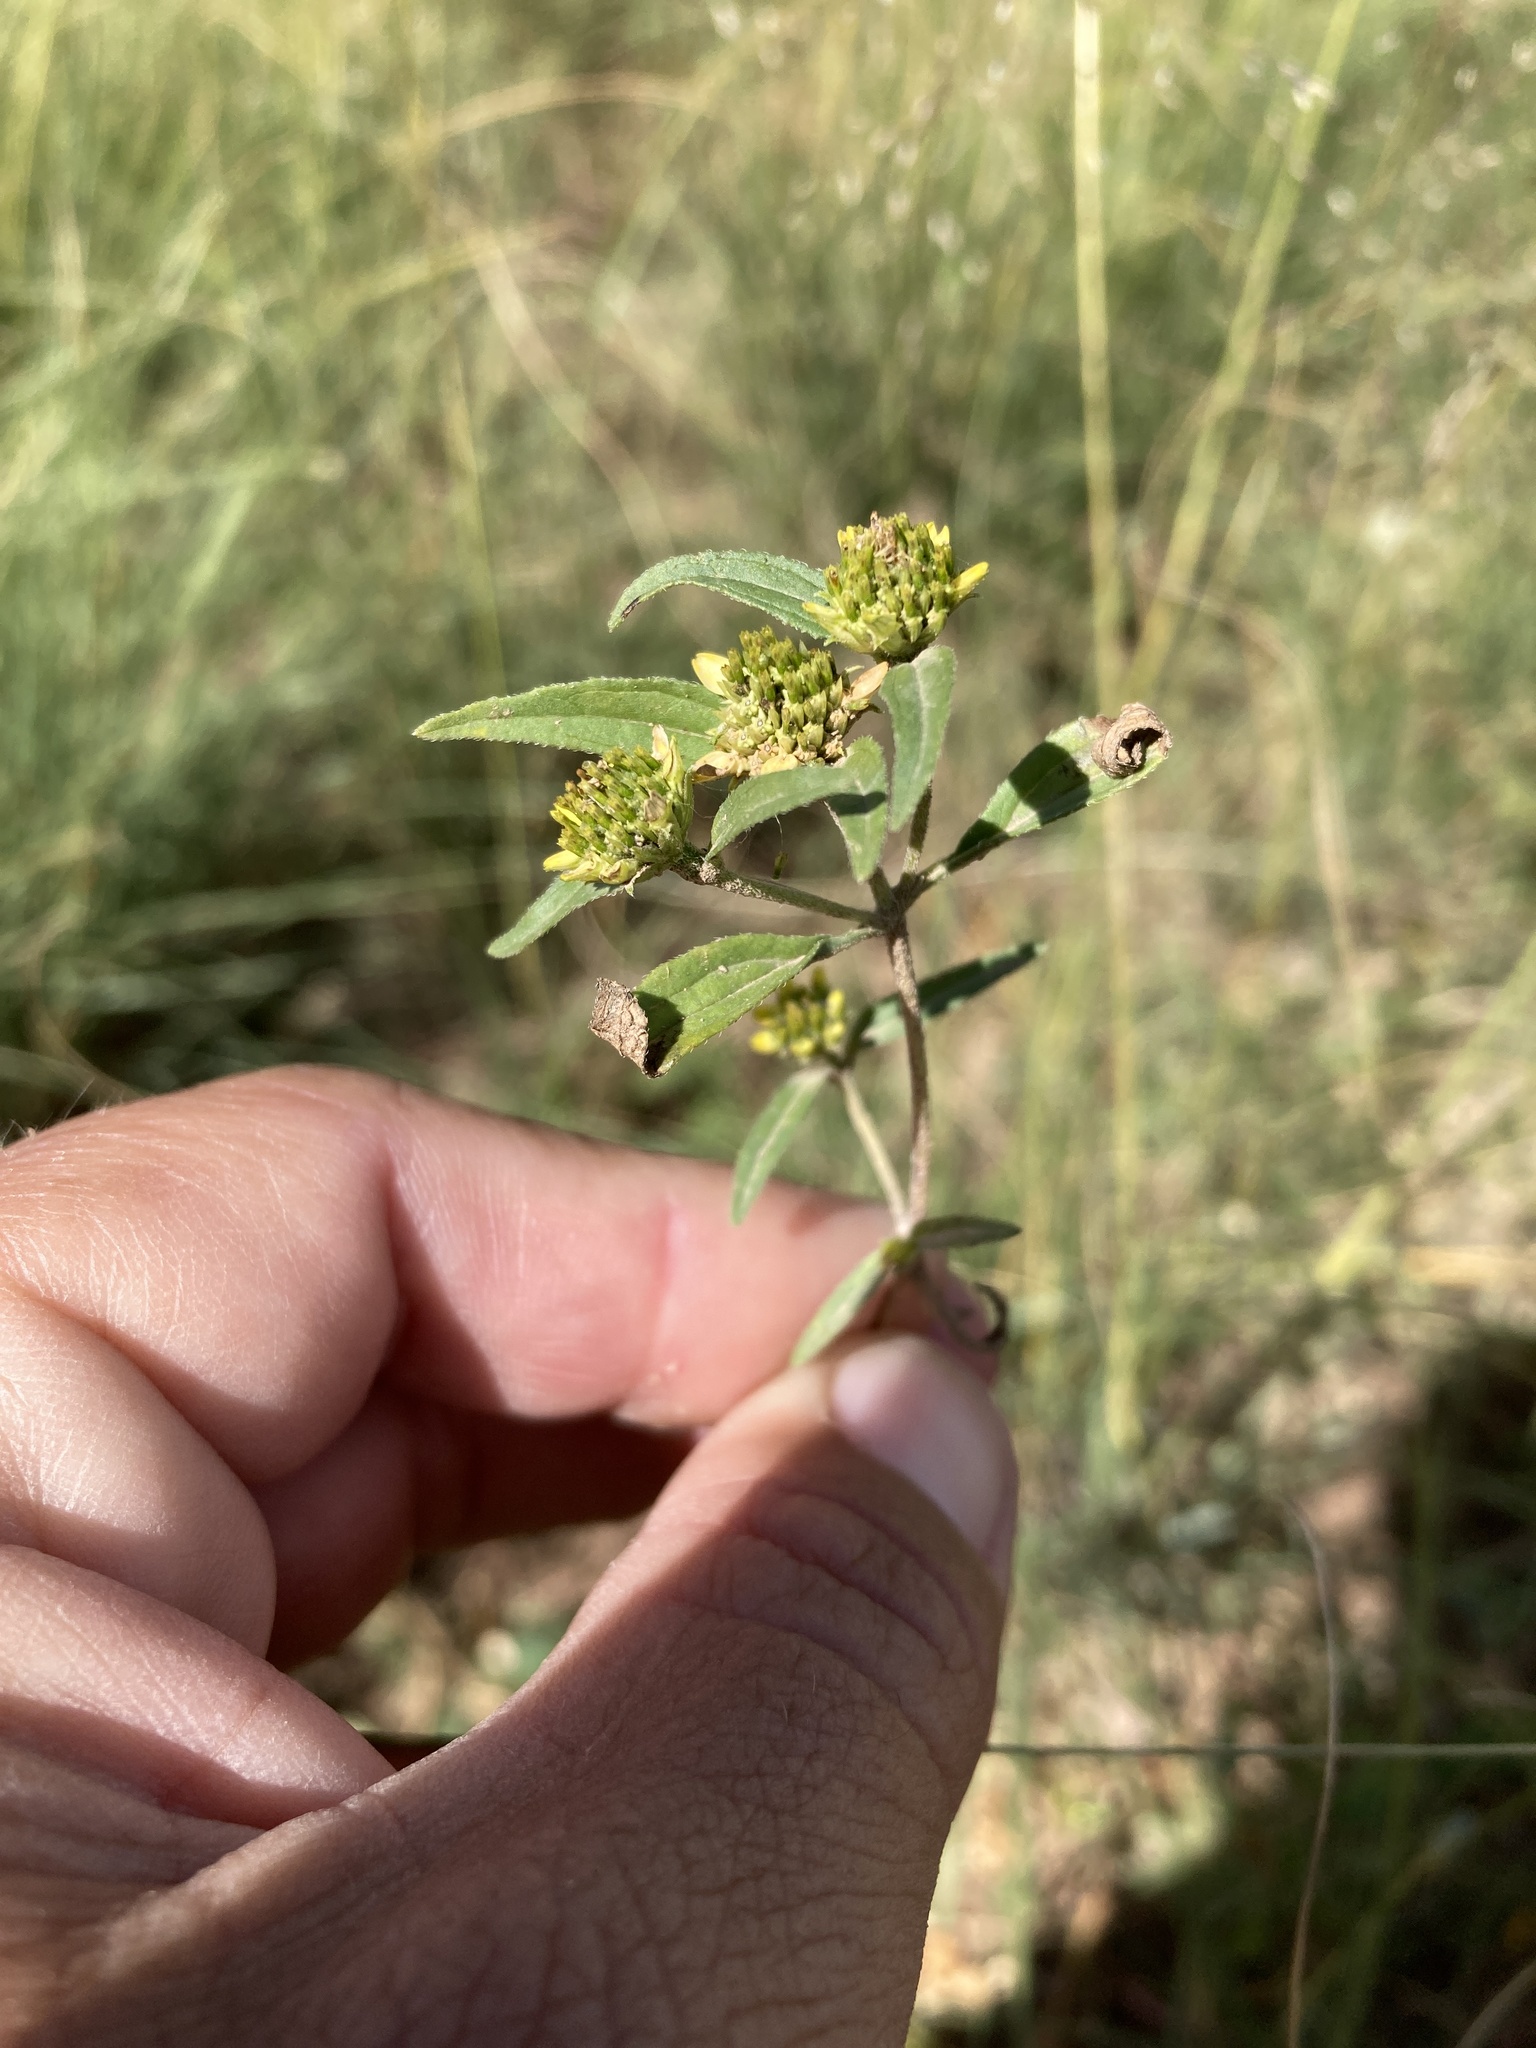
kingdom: Plantae
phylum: Tracheophyta
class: Magnoliopsida
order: Asterales
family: Asteraceae
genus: Sanvitalia
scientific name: Sanvitalia abertii
